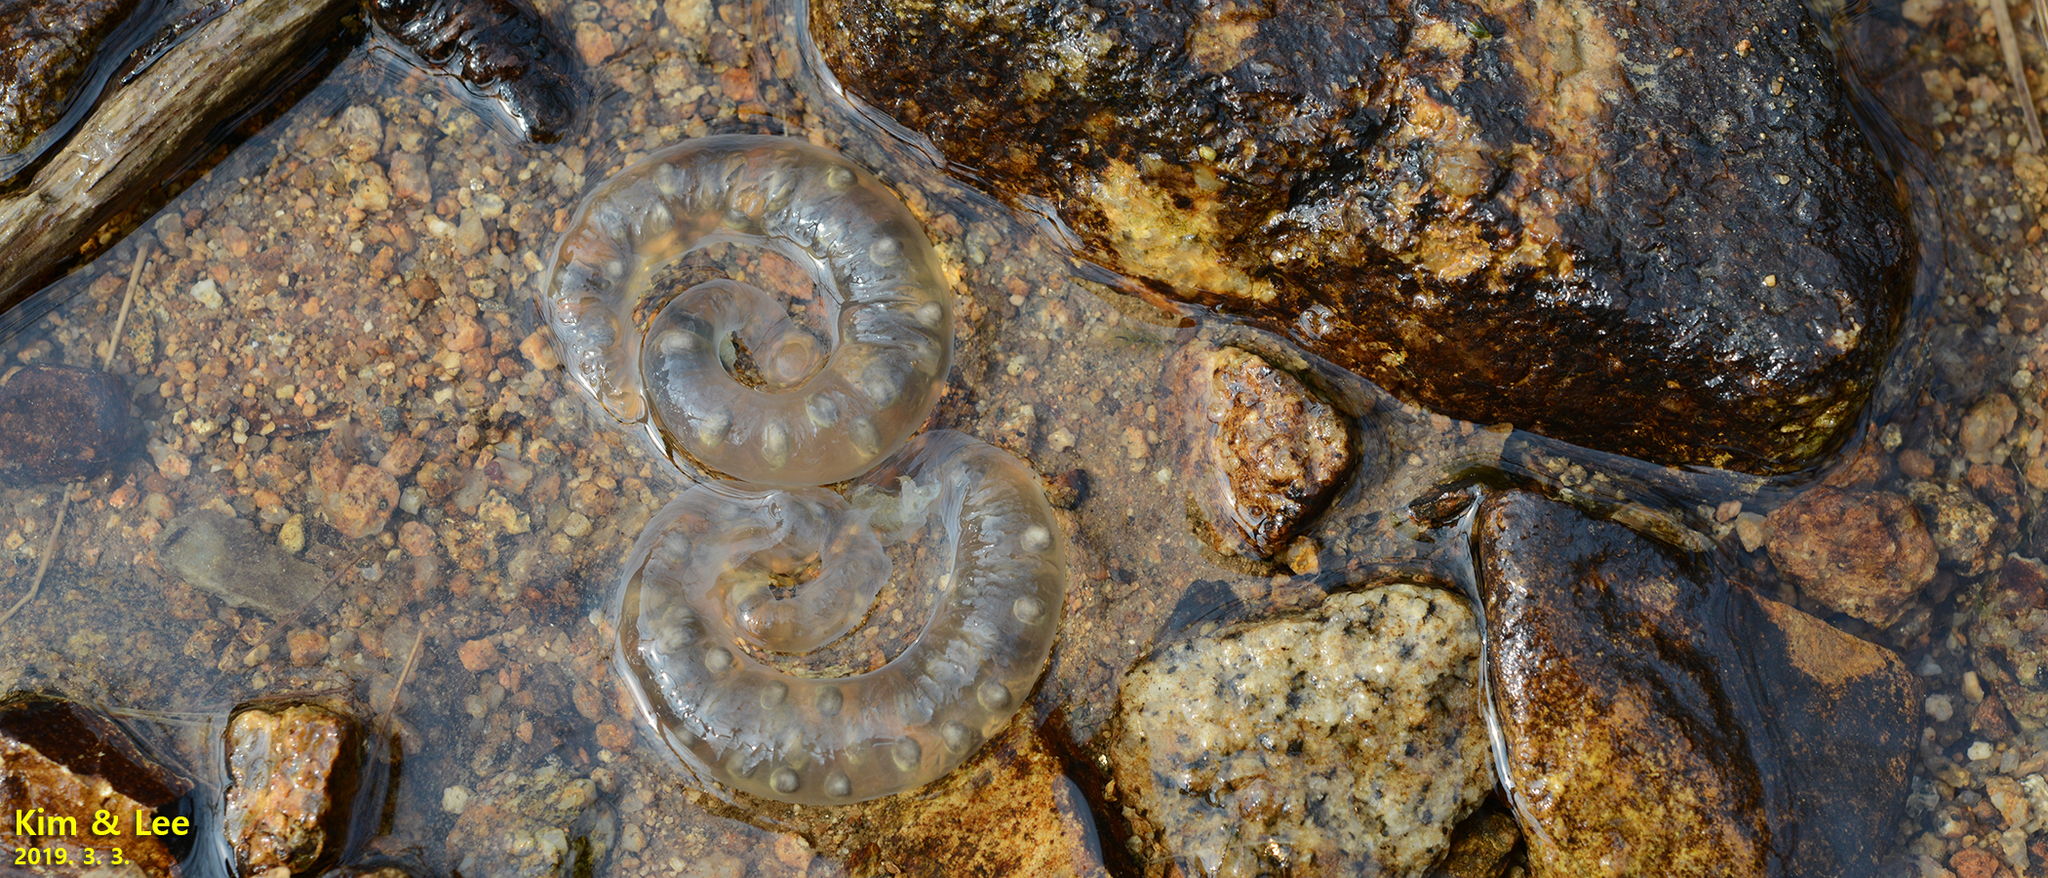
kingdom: Animalia
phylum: Chordata
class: Amphibia
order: Caudata
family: Hynobiidae
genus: Hynobius
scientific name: Hynobius perplicatus
